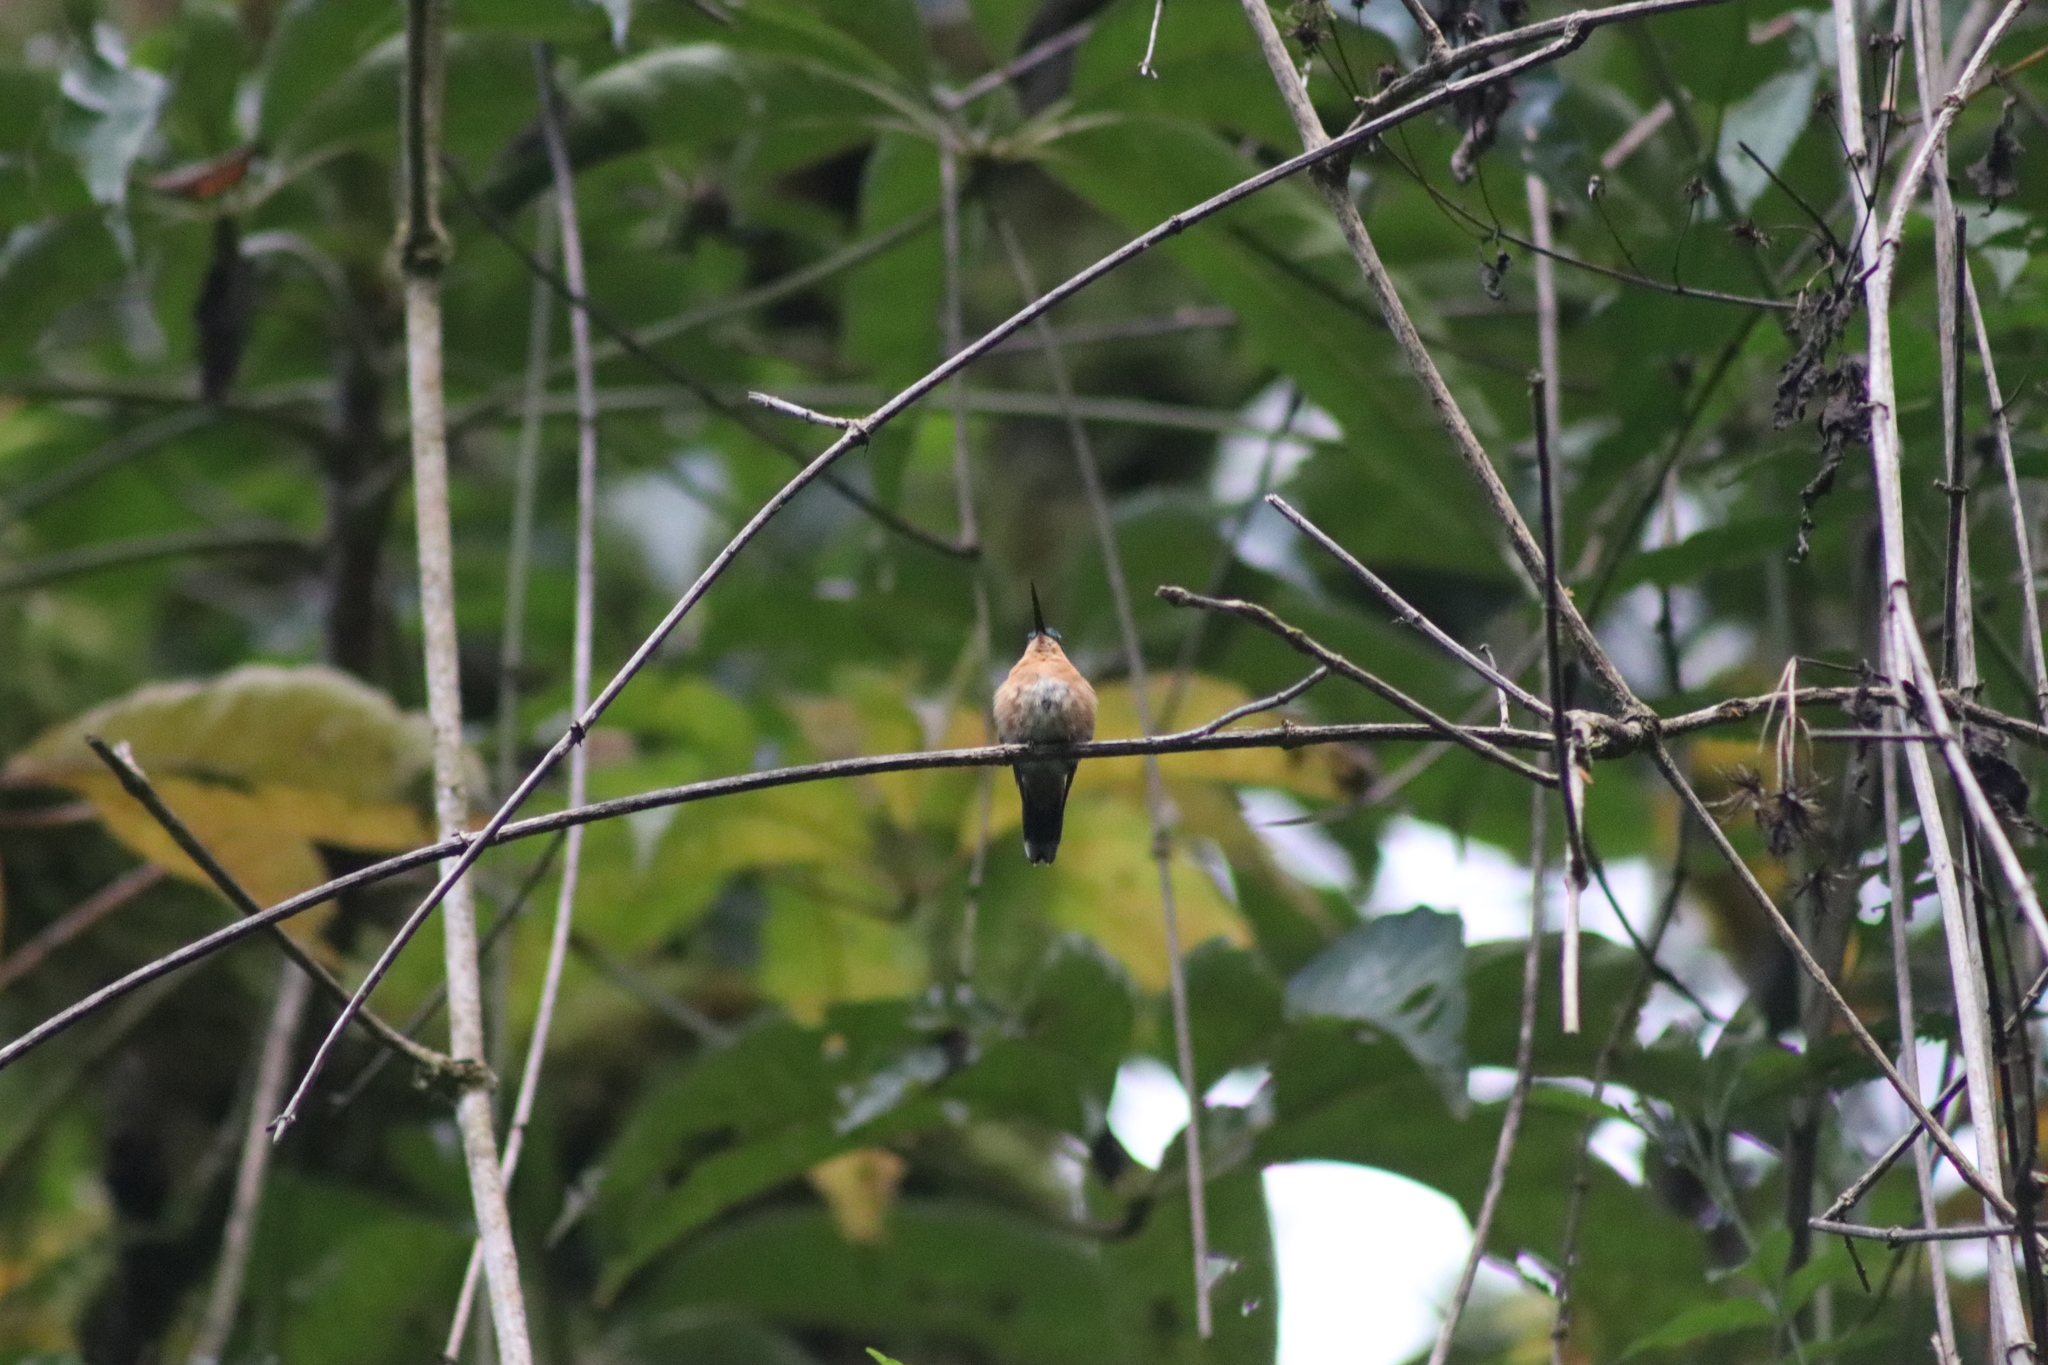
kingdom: Animalia
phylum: Chordata
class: Aves
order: Apodiformes
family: Trochilidae
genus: Lampornis
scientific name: Lampornis calolaemus
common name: Purple-throated mountain-gem
